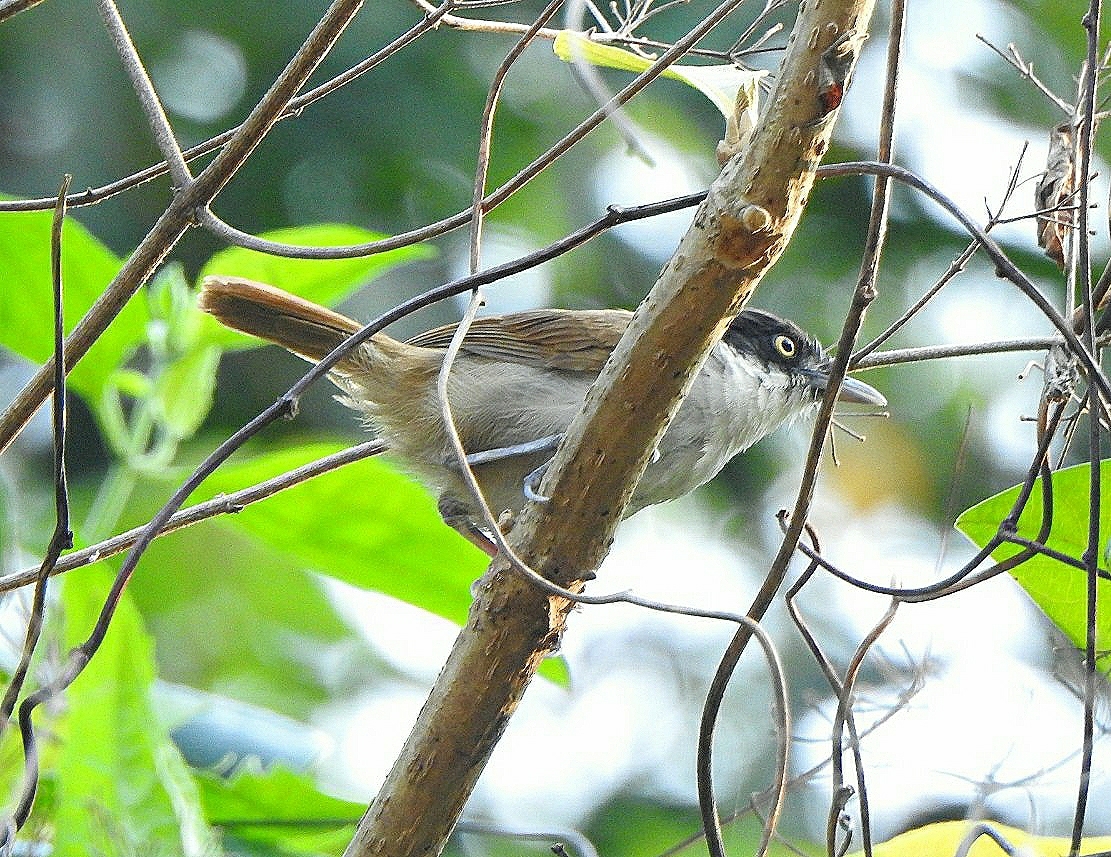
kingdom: Animalia
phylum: Chordata
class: Aves
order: Passeriformes
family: Timaliidae
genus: Rhopocichla
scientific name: Rhopocichla atriceps
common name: Dark-fronted babbler
